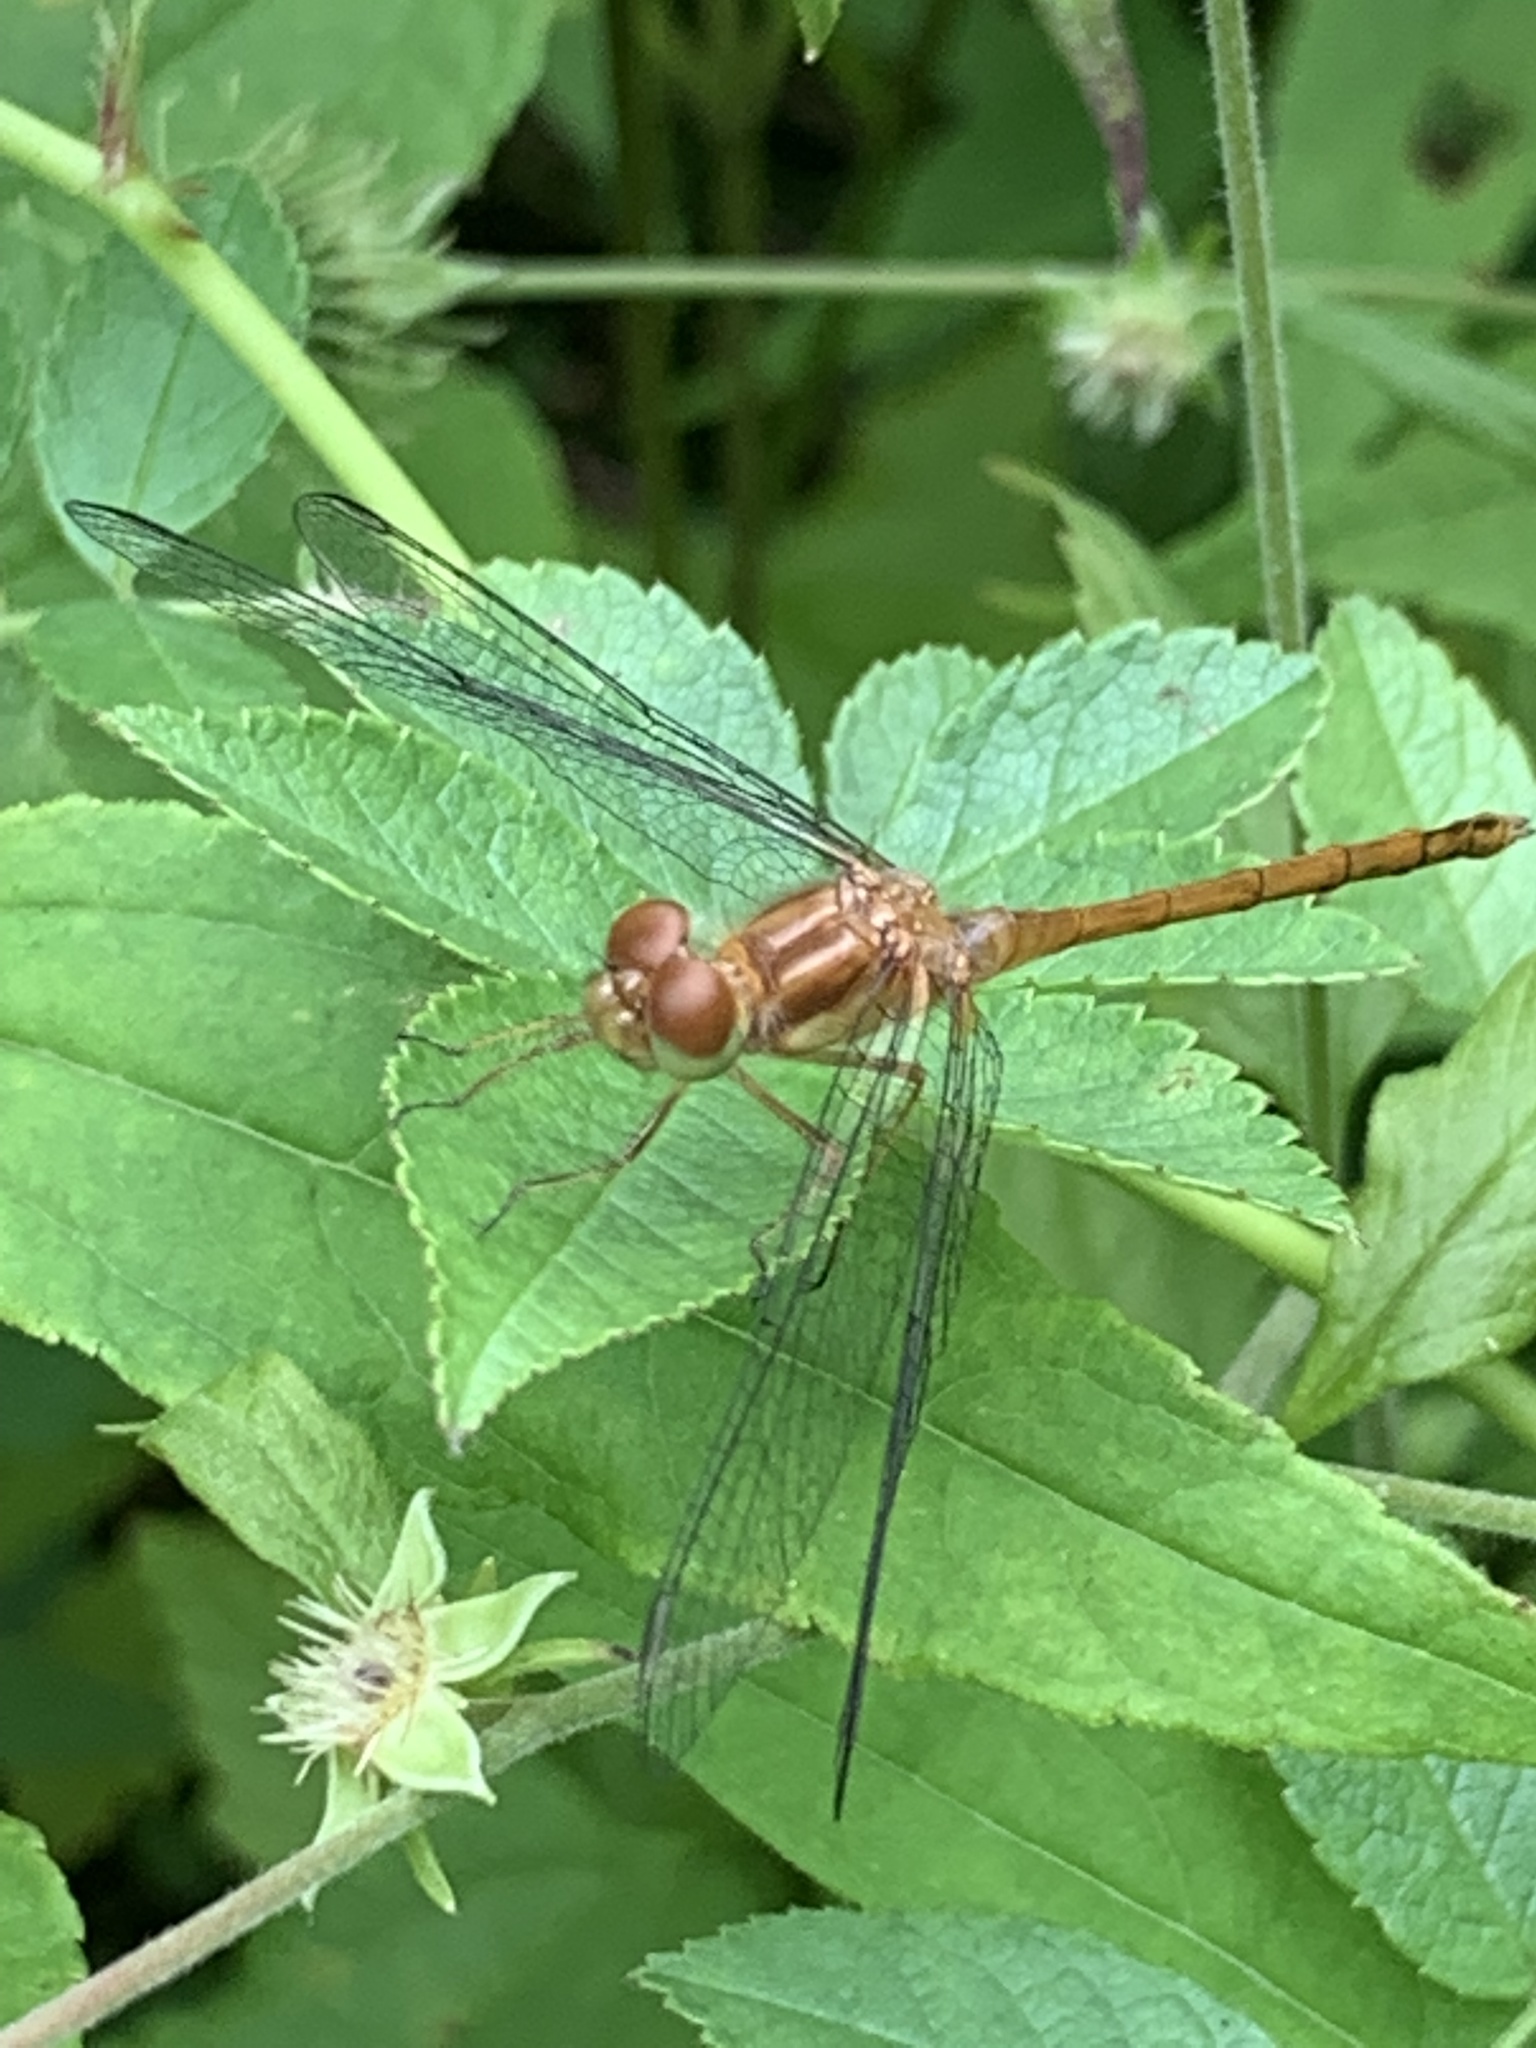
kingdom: Animalia
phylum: Arthropoda
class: Insecta
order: Odonata
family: Libellulidae
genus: Sympetrum
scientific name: Sympetrum vicinum
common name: Autumn meadowhawk
